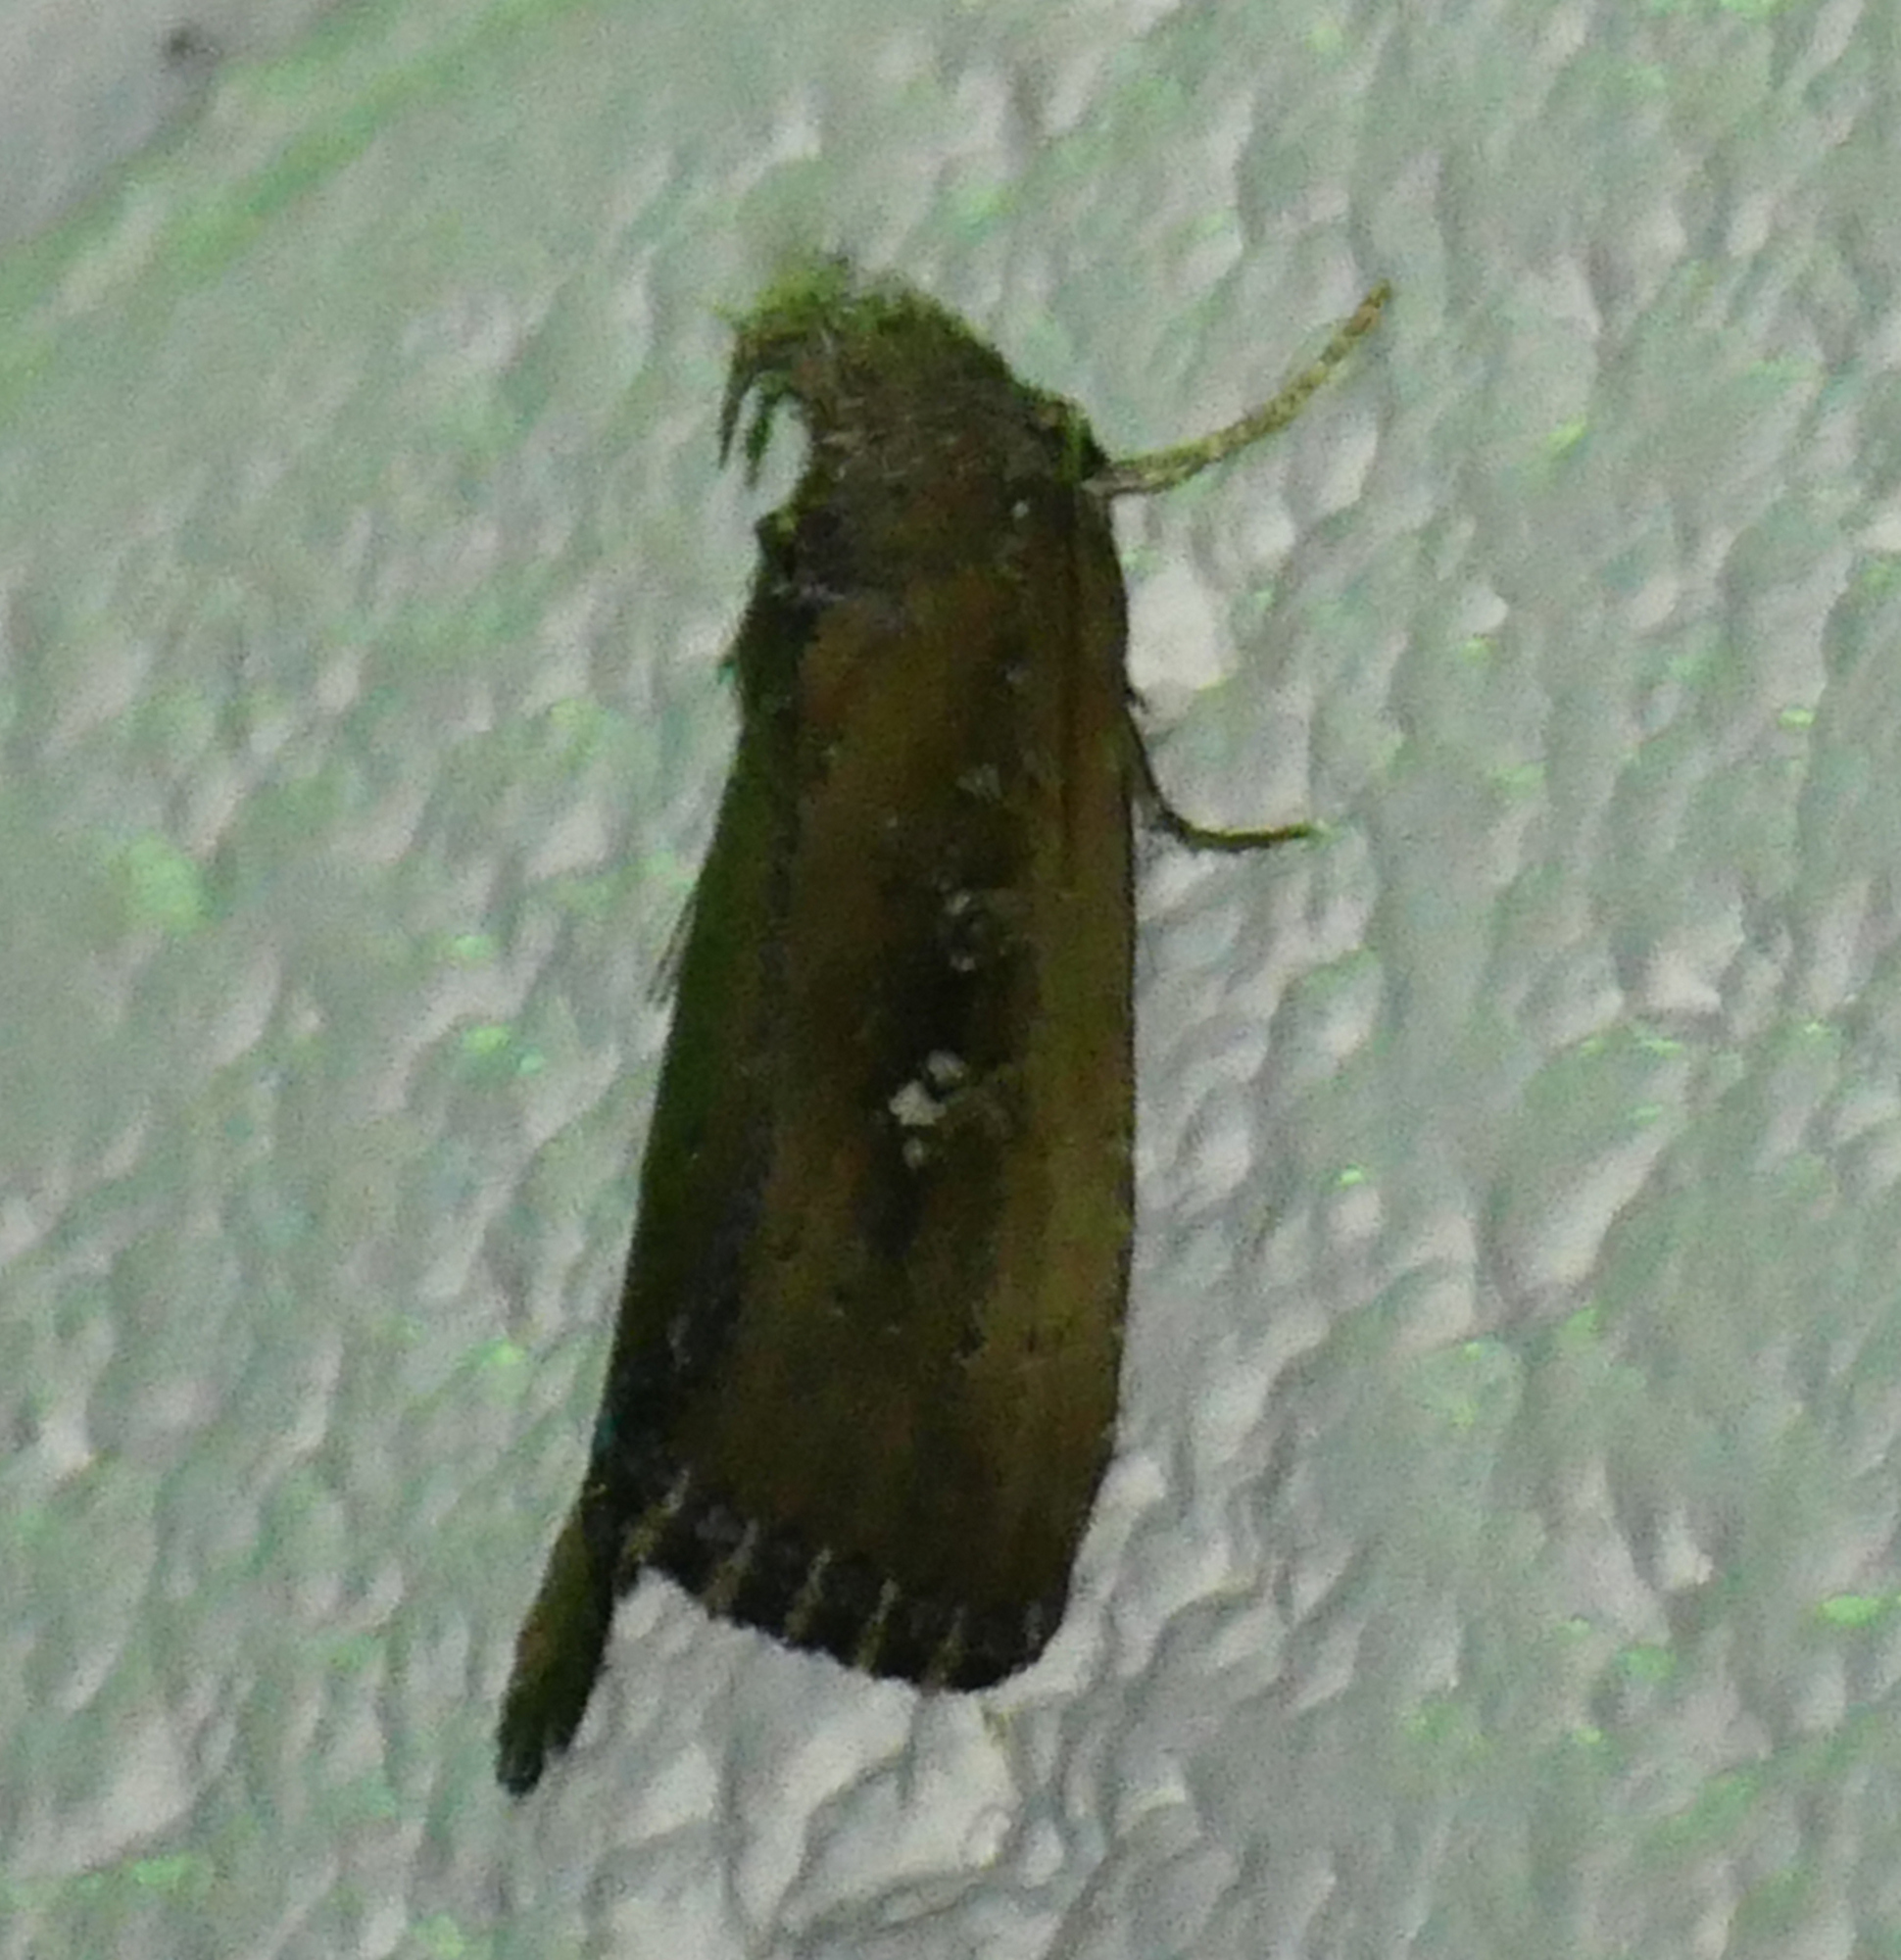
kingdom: Animalia
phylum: Arthropoda
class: Insecta
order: Lepidoptera
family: Noctuidae
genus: Condica
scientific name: Condica videns
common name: White-dotted groundling
